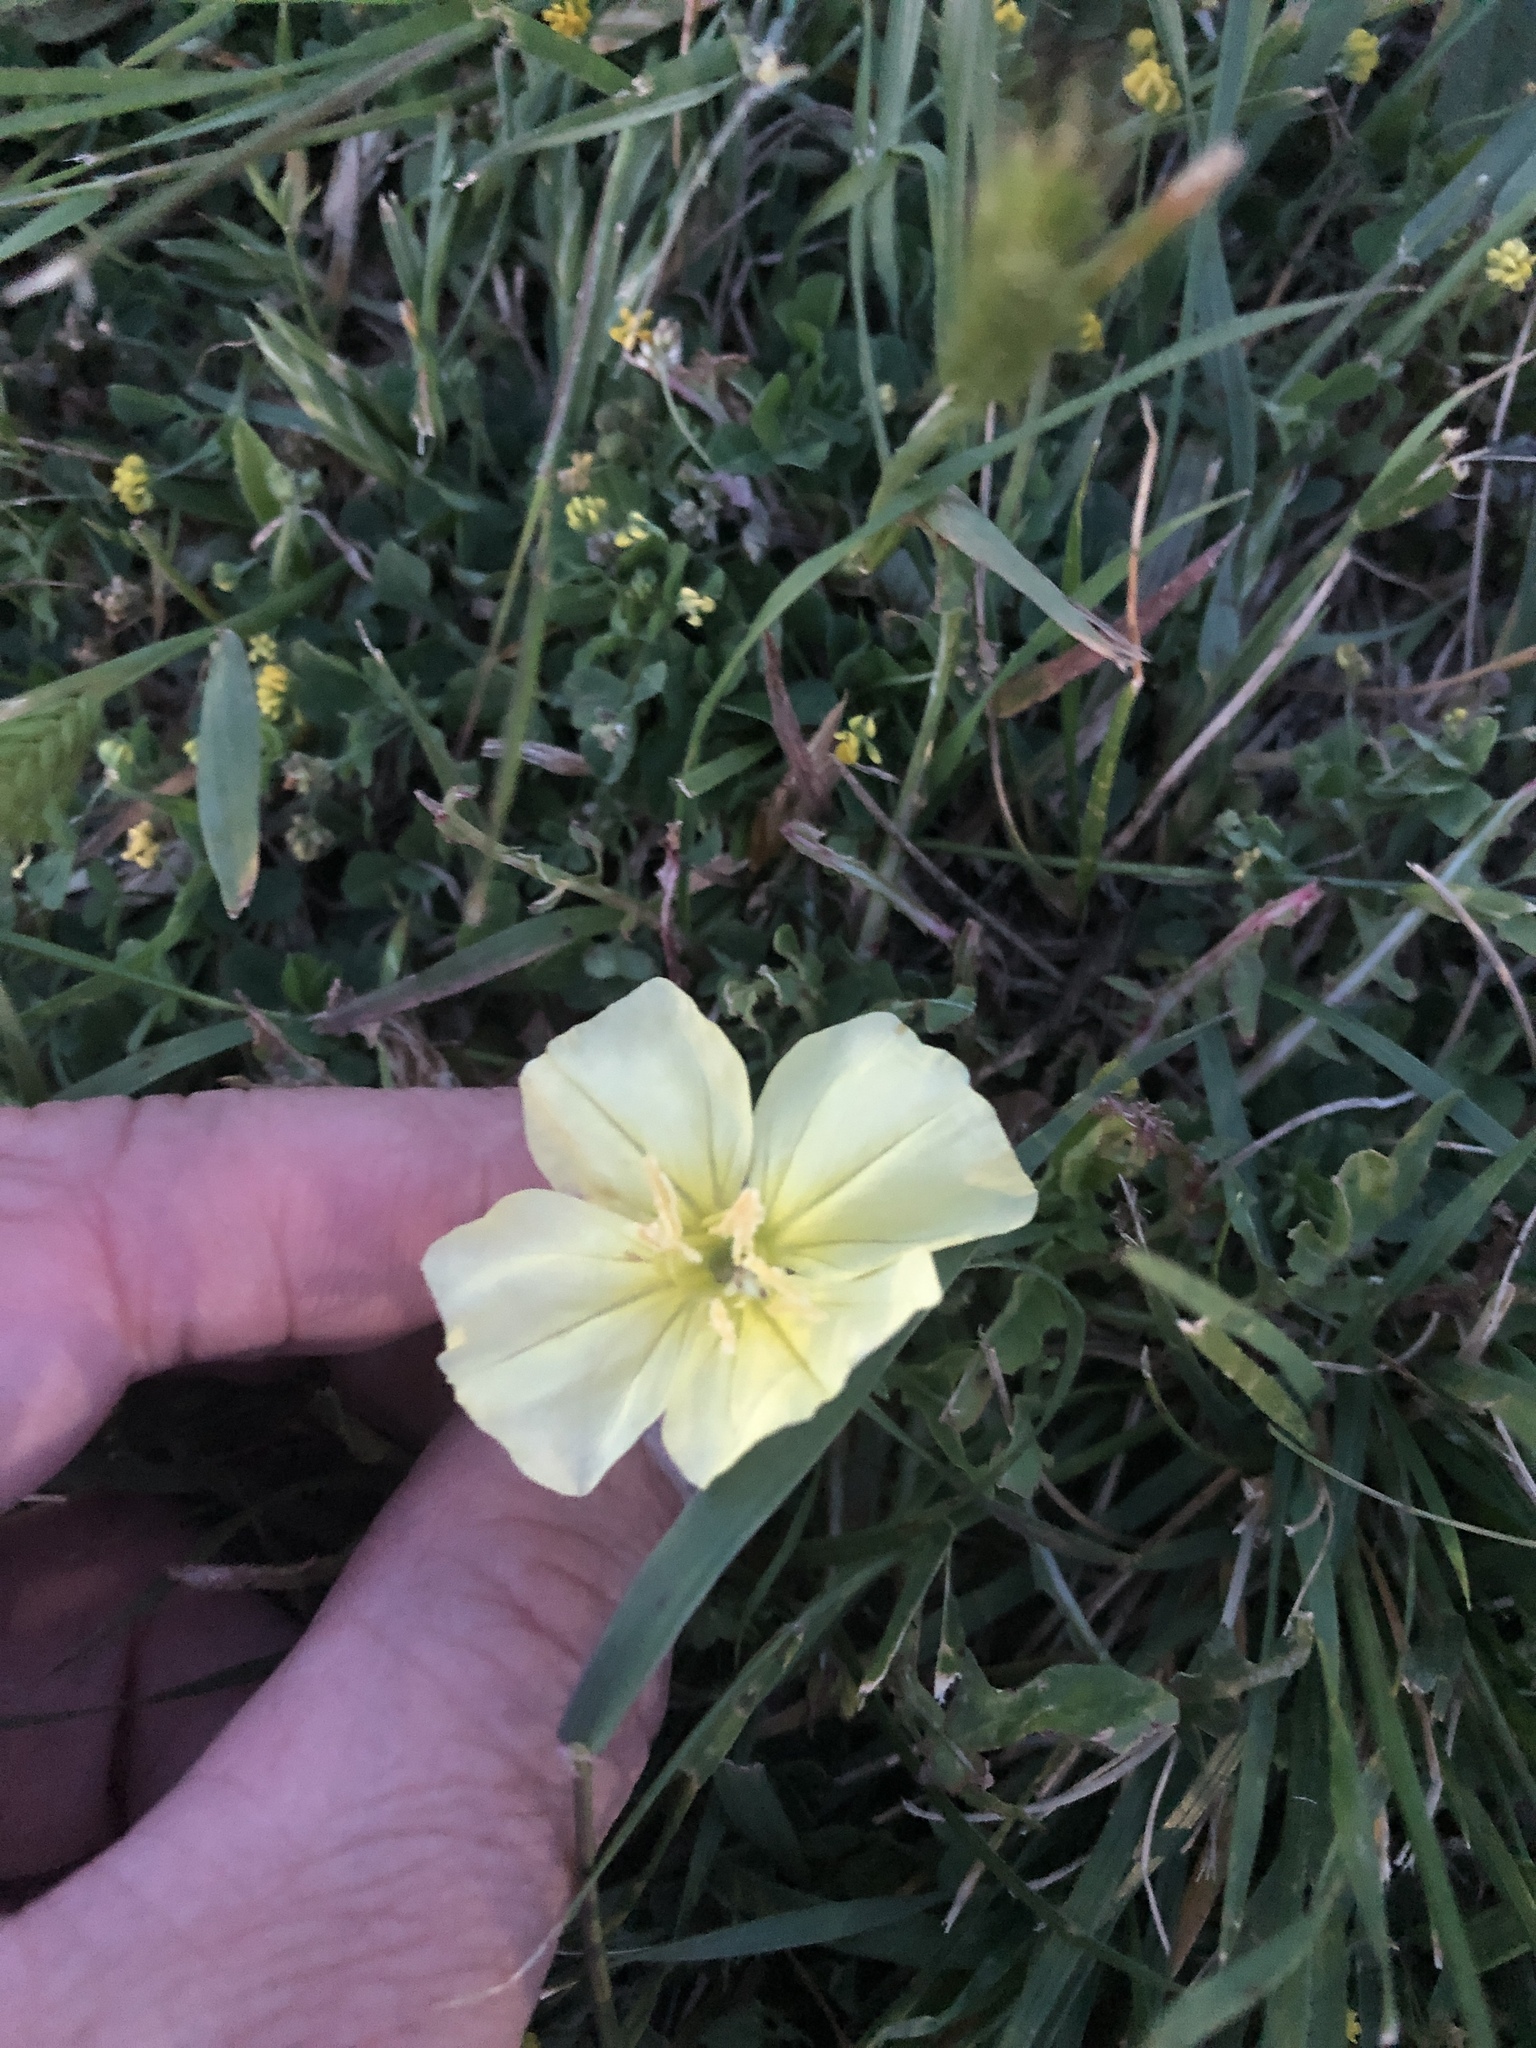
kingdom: Plantae
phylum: Tracheophyta
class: Magnoliopsida
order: Myrtales
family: Onagraceae
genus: Oenothera
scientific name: Oenothera triloba
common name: Sessile evening-primrose
